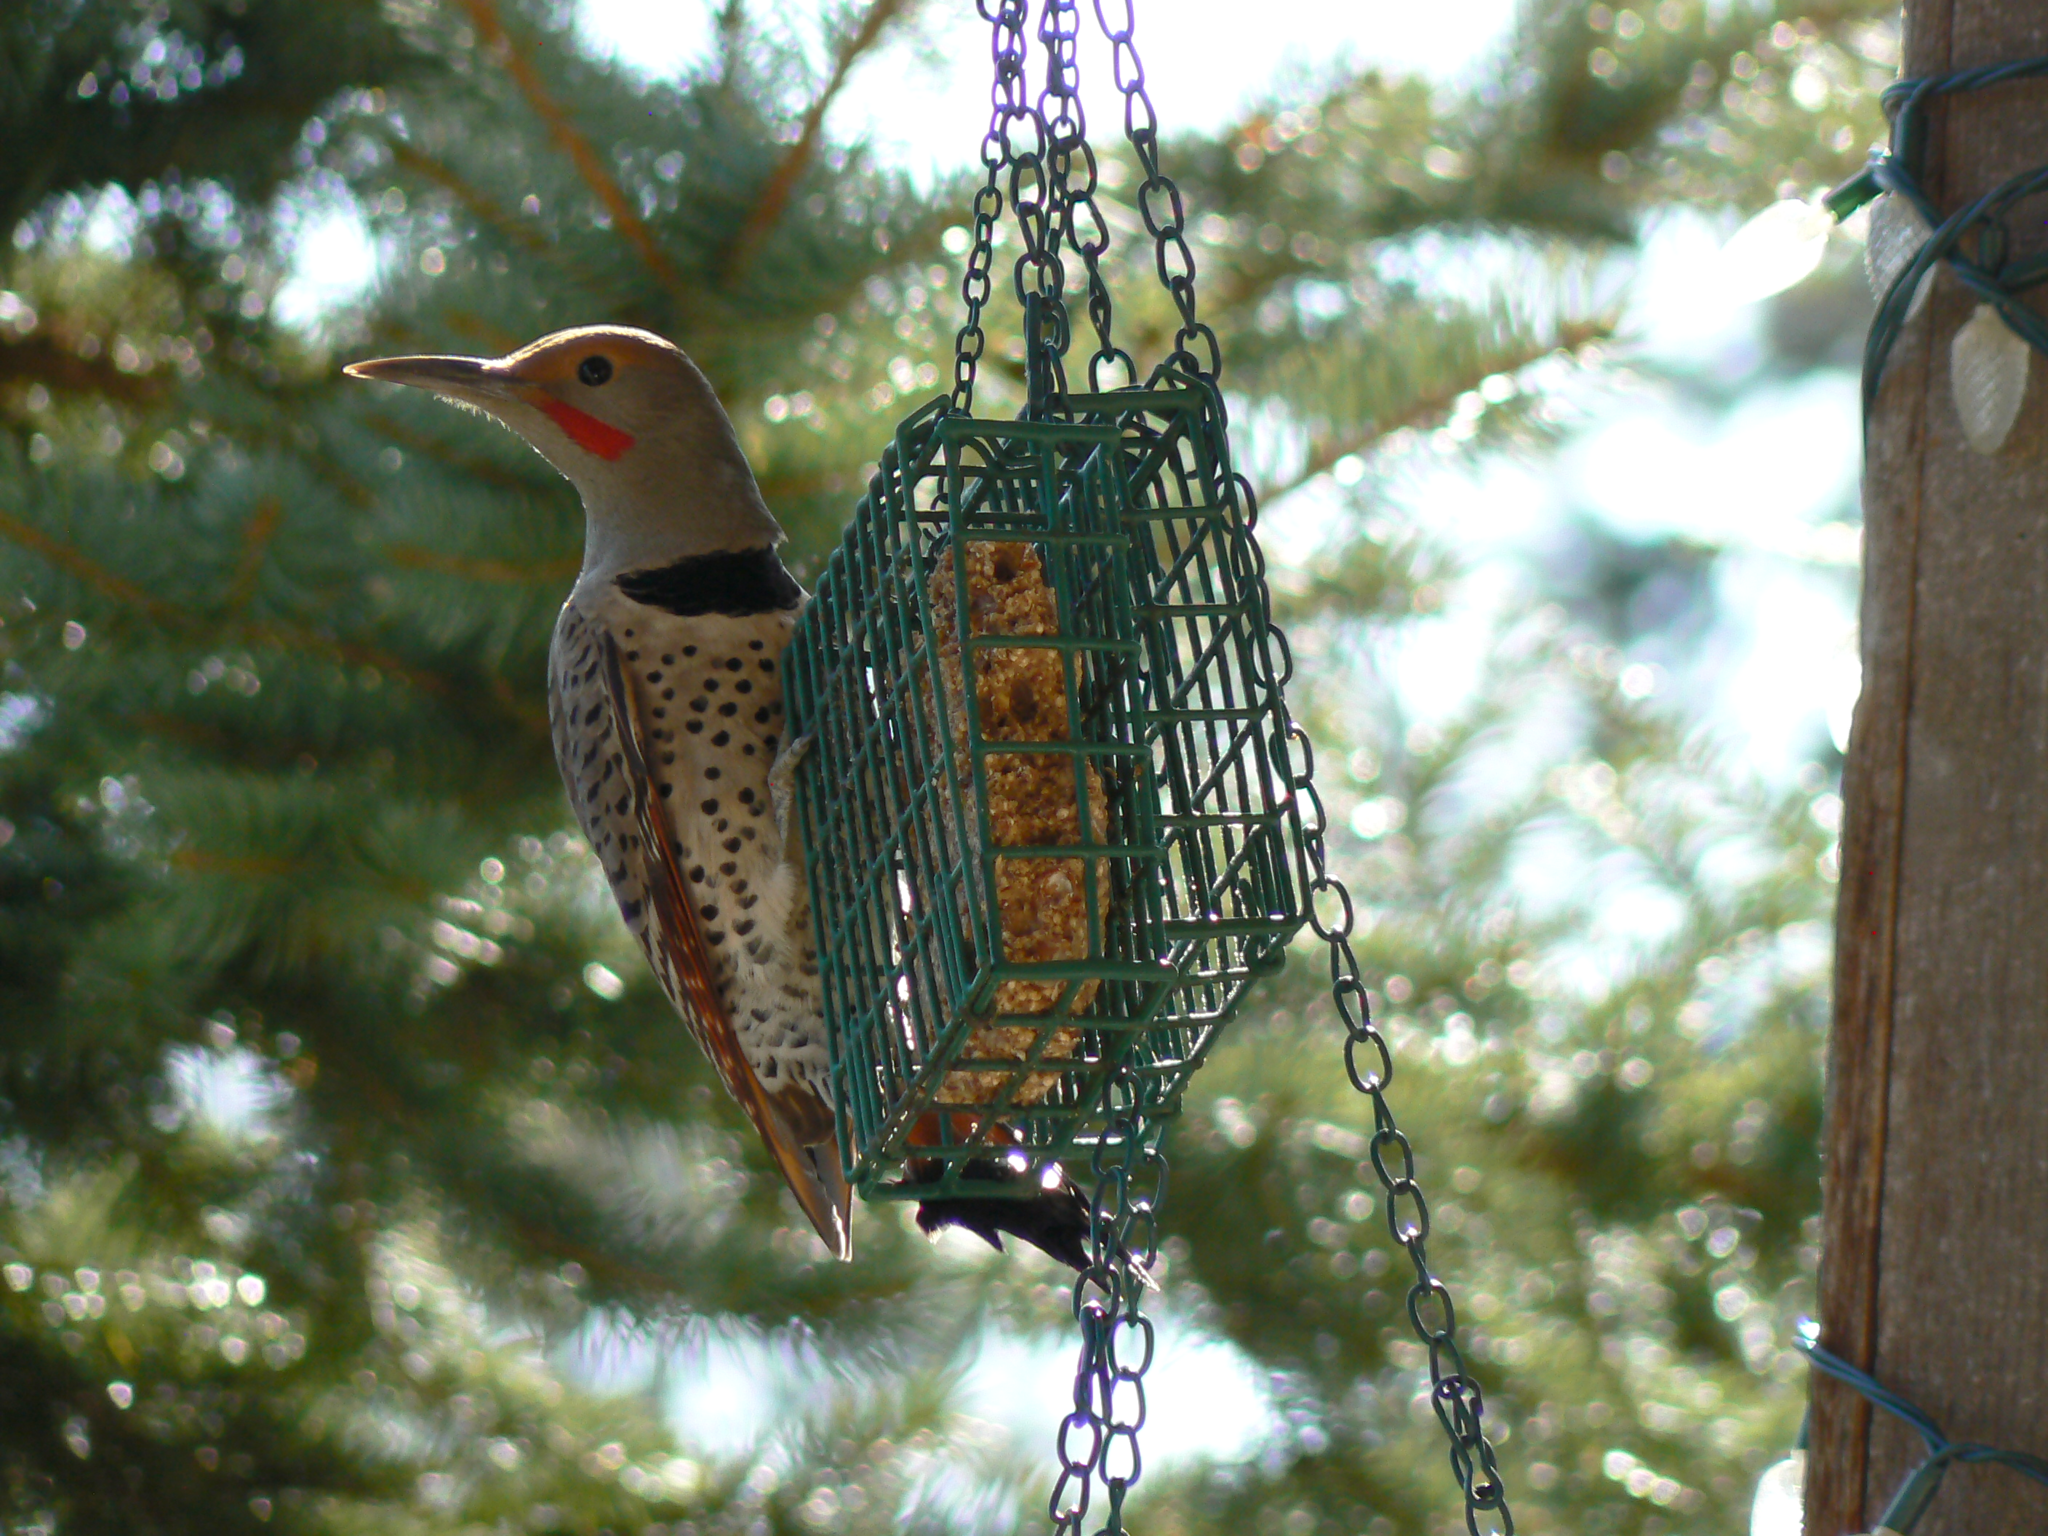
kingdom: Animalia
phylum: Chordata
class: Aves
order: Piciformes
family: Picidae
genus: Colaptes
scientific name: Colaptes auratus
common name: Northern flicker
